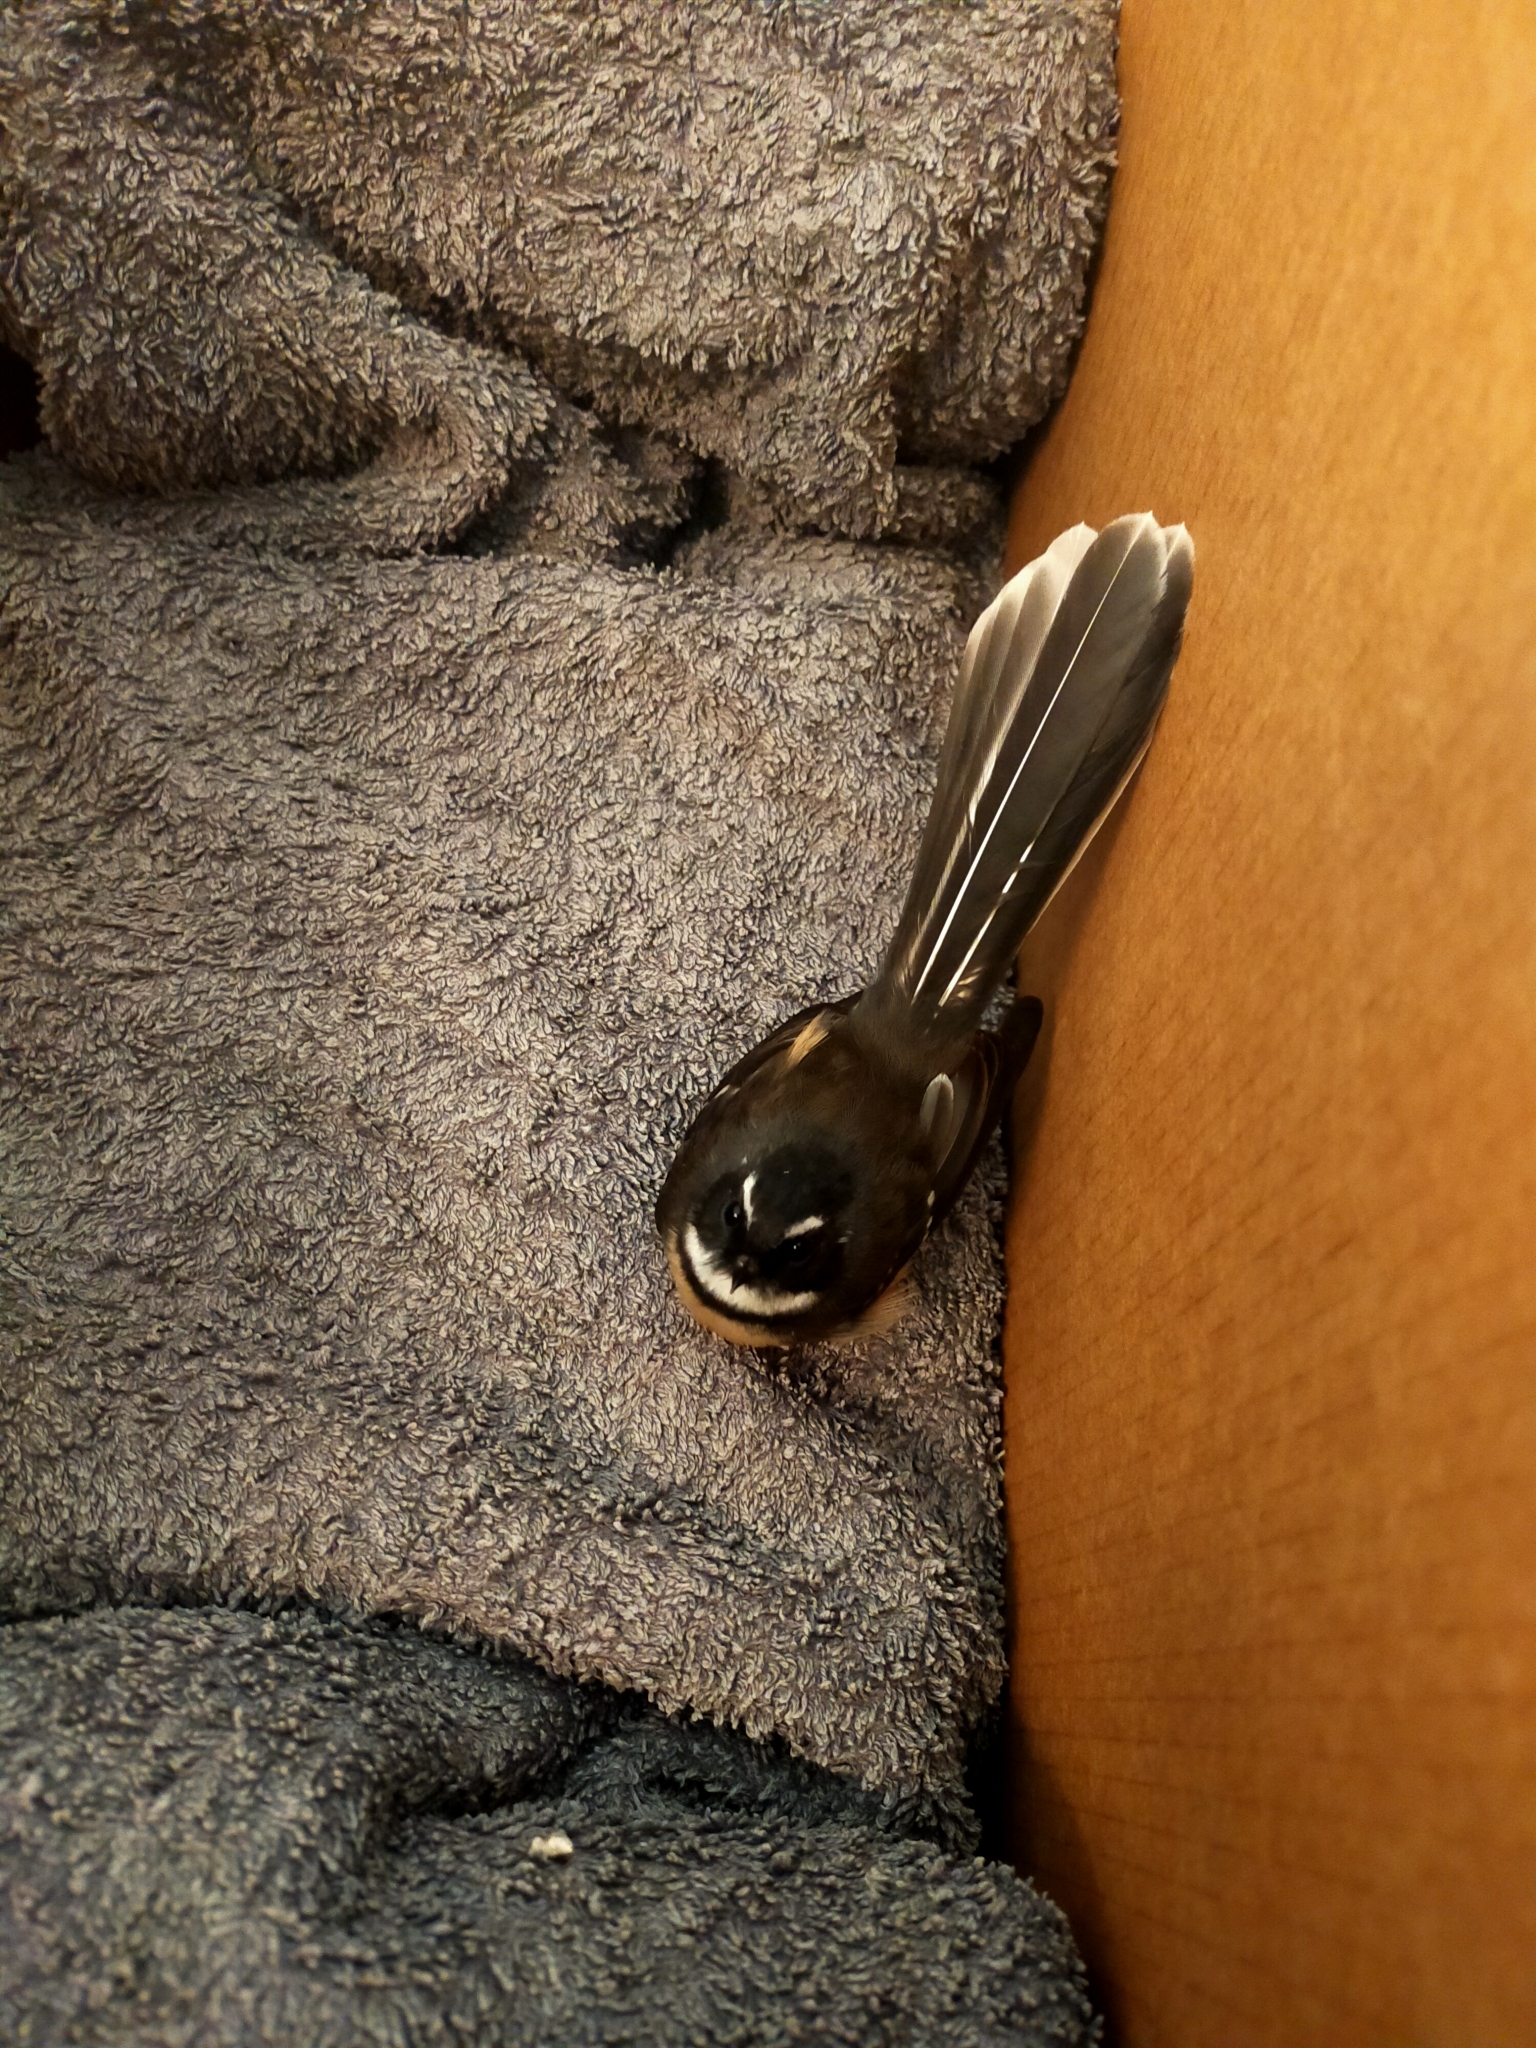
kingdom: Animalia
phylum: Chordata
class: Aves
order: Passeriformes
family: Rhipiduridae
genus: Rhipidura
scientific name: Rhipidura fuliginosa
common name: New zealand fantail
